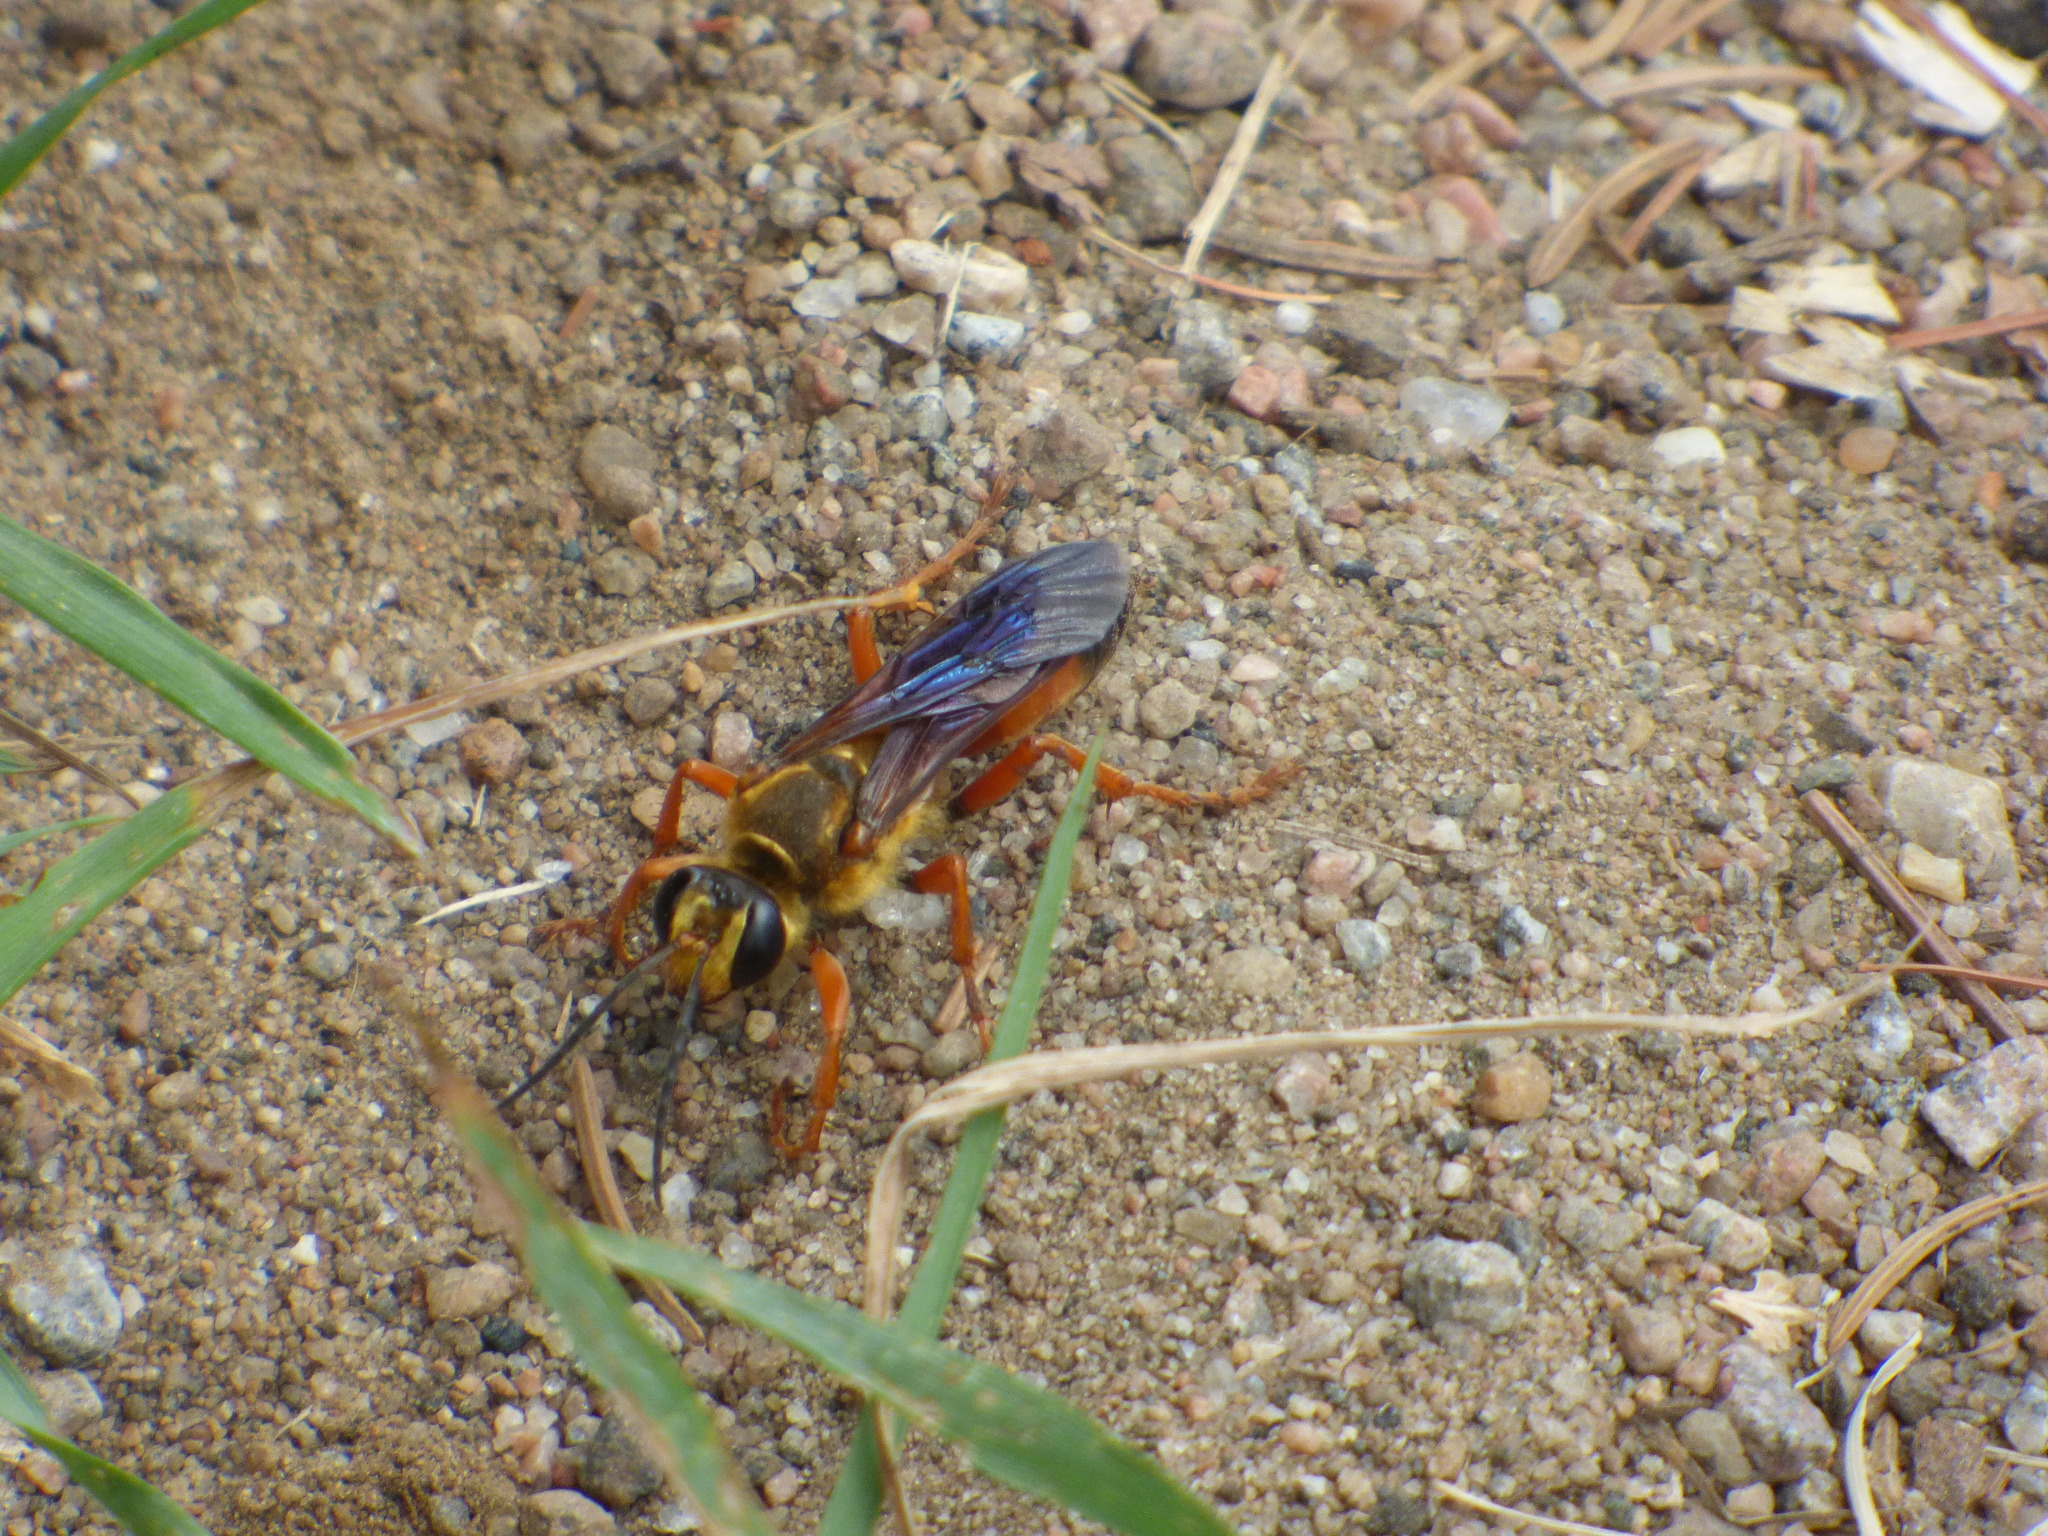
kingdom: Animalia
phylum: Arthropoda
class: Insecta
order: Hymenoptera
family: Sphecidae
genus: Sphex
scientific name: Sphex ichneumoneus
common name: Great golden digger wasp
